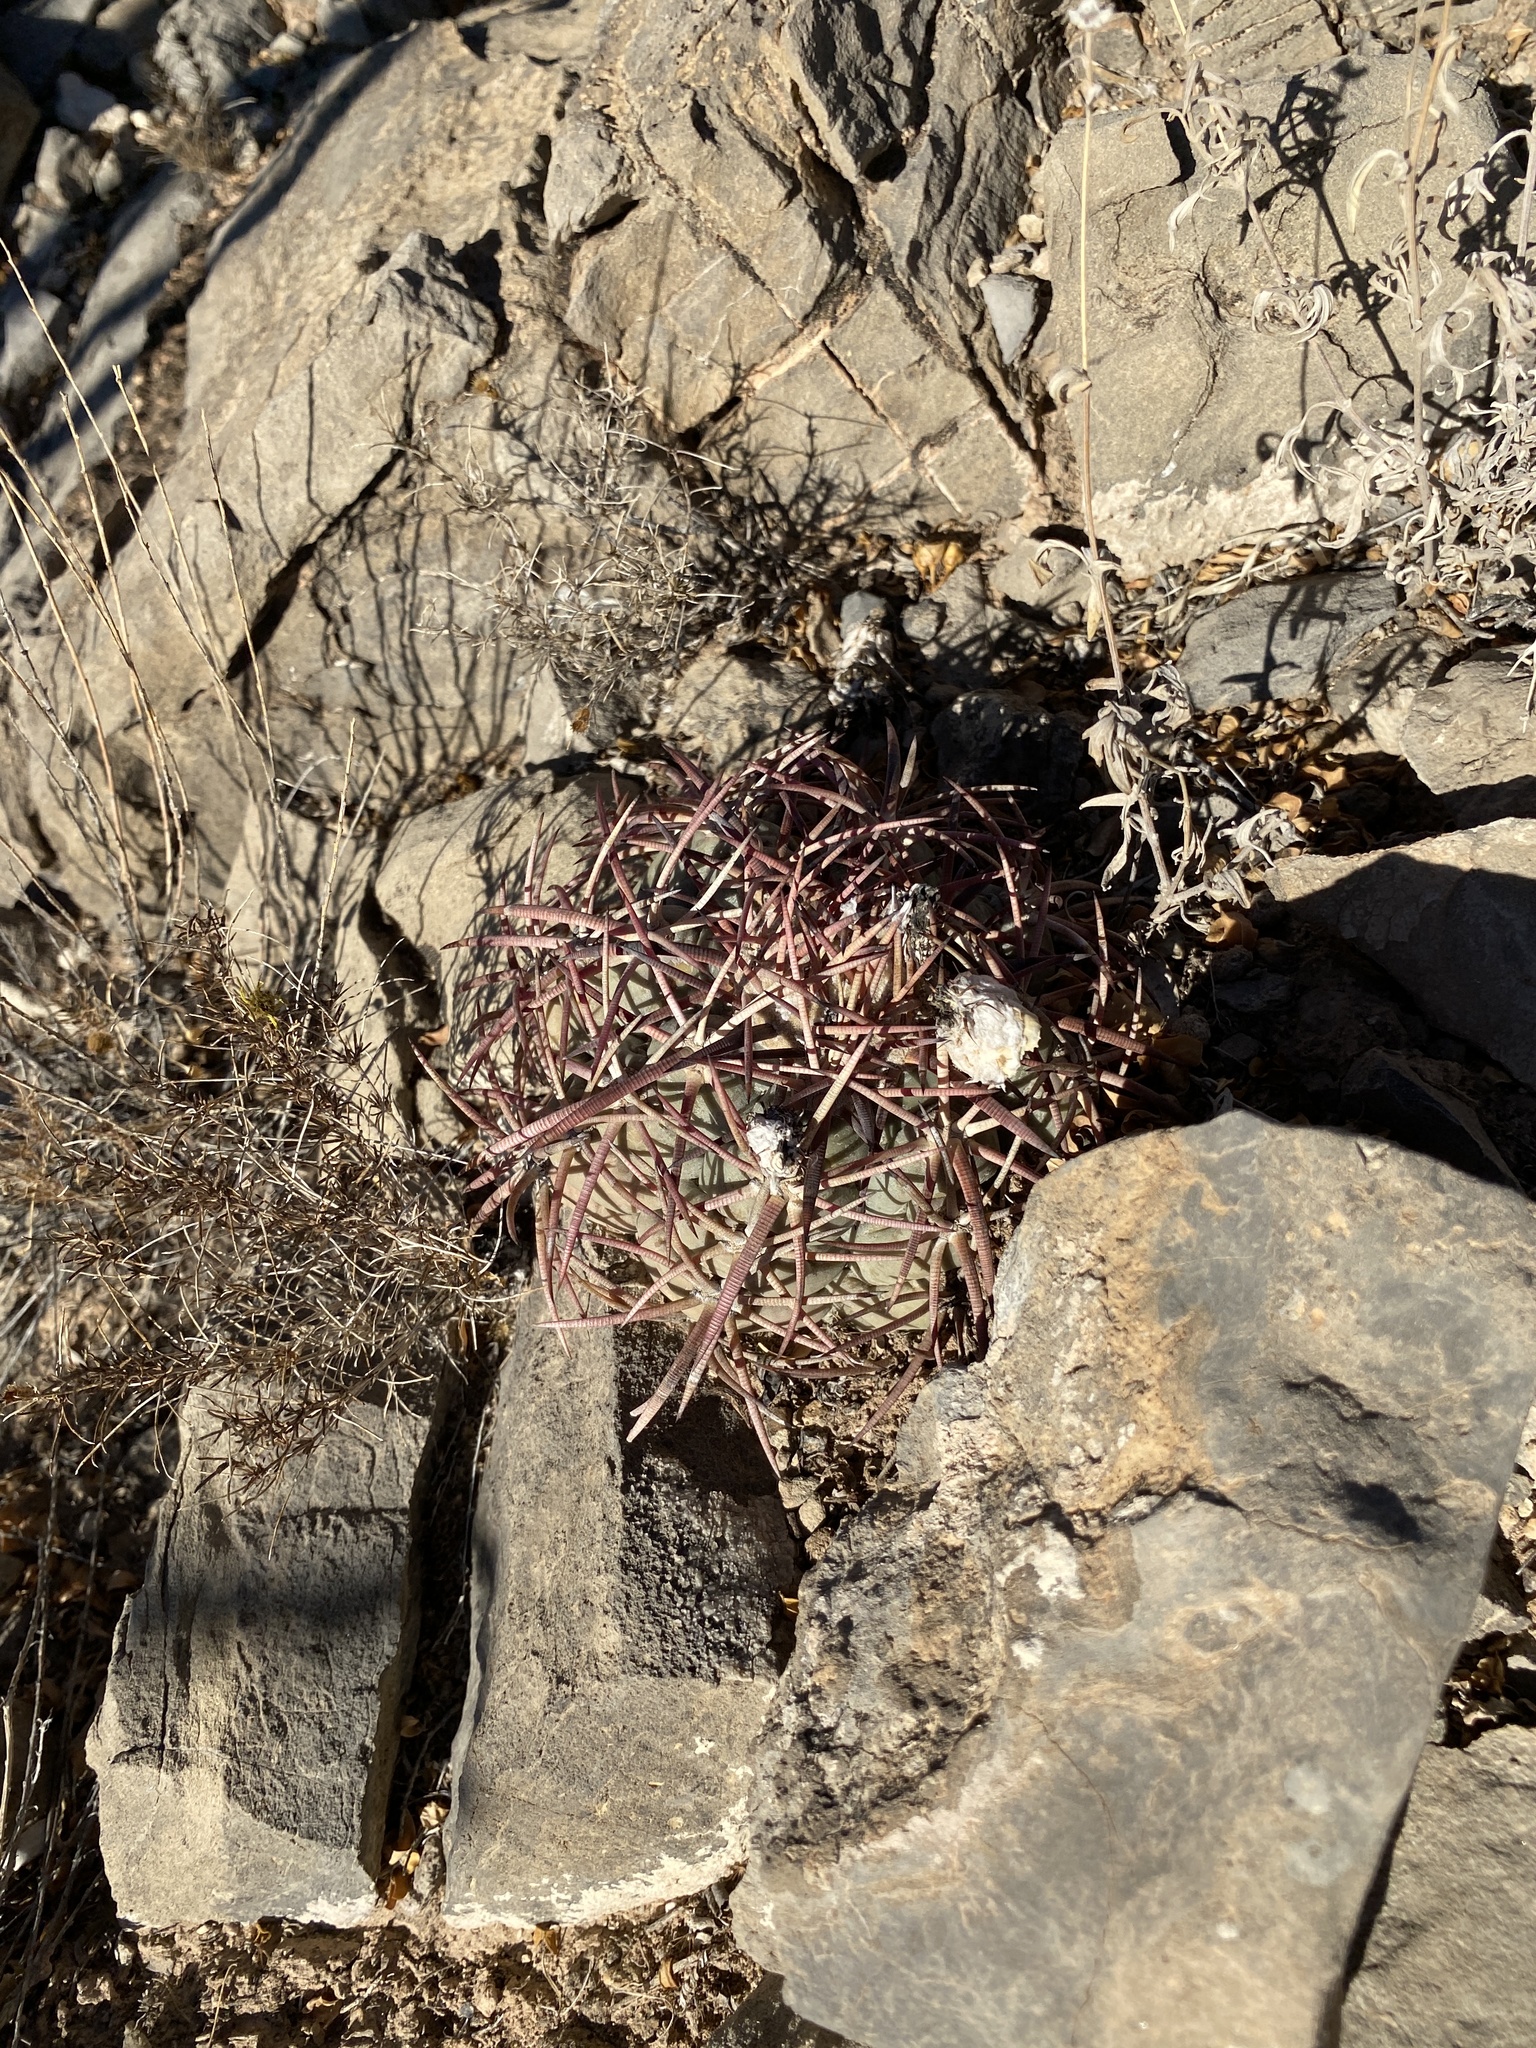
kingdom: Plantae
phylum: Tracheophyta
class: Magnoliopsida
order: Caryophyllales
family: Cactaceae
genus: Echinocactus
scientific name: Echinocactus horizonthalonius
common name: Devilshead
